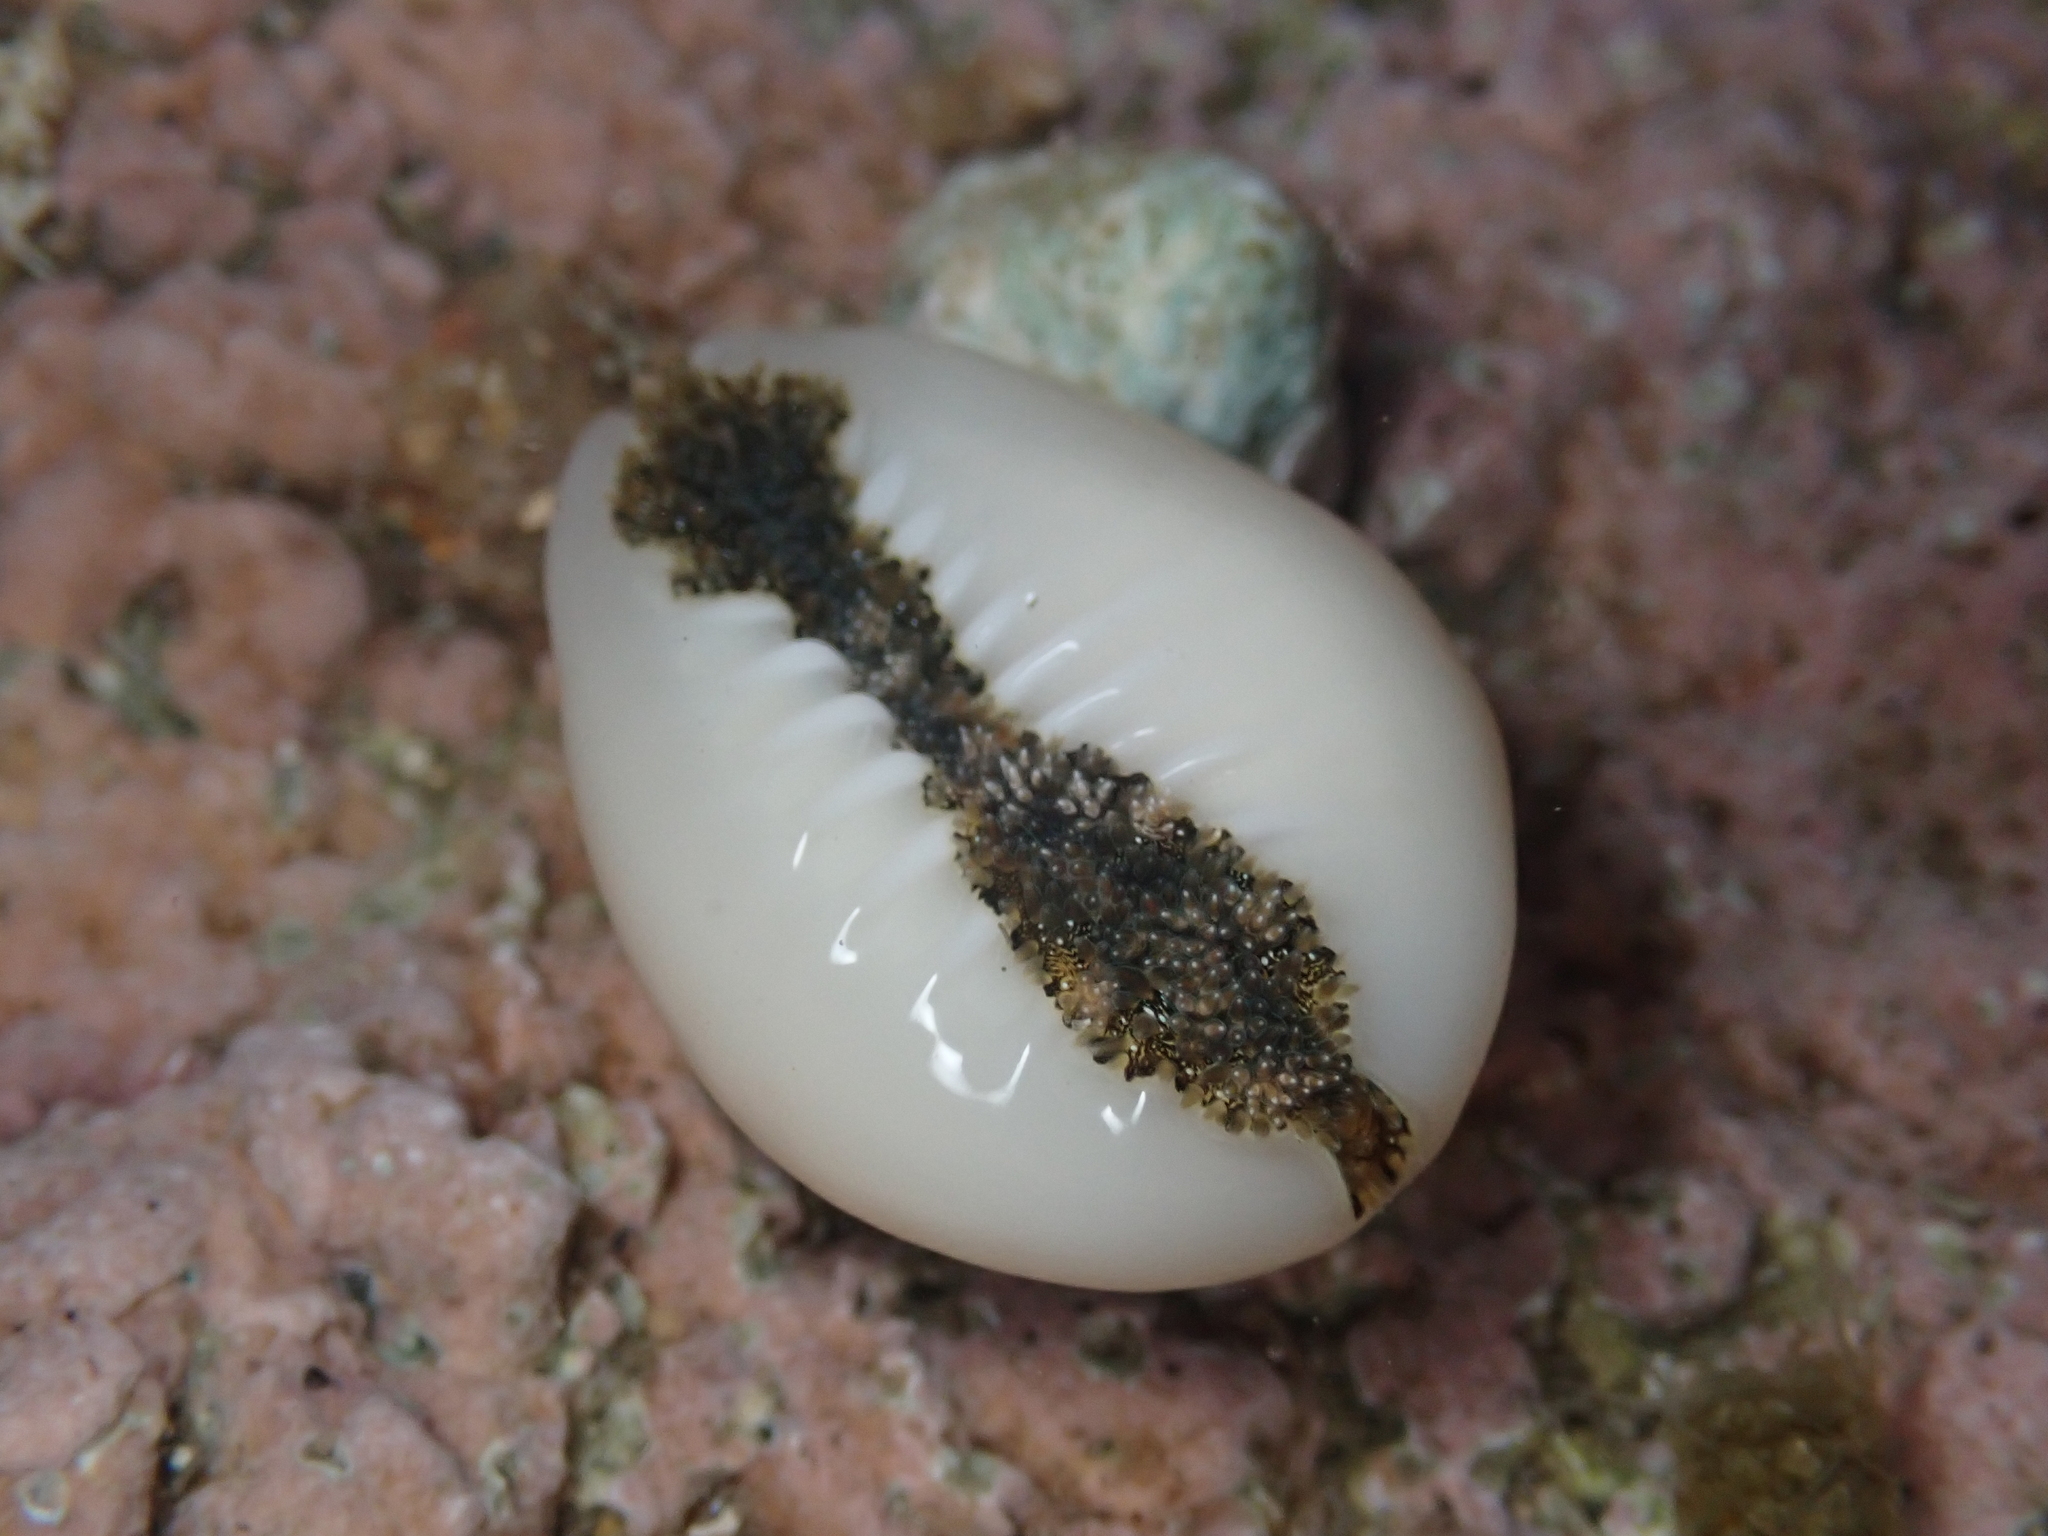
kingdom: Animalia
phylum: Mollusca
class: Gastropoda
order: Littorinimorpha
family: Cypraeidae
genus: Monetaria
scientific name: Monetaria annulus
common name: Ring cowrie
